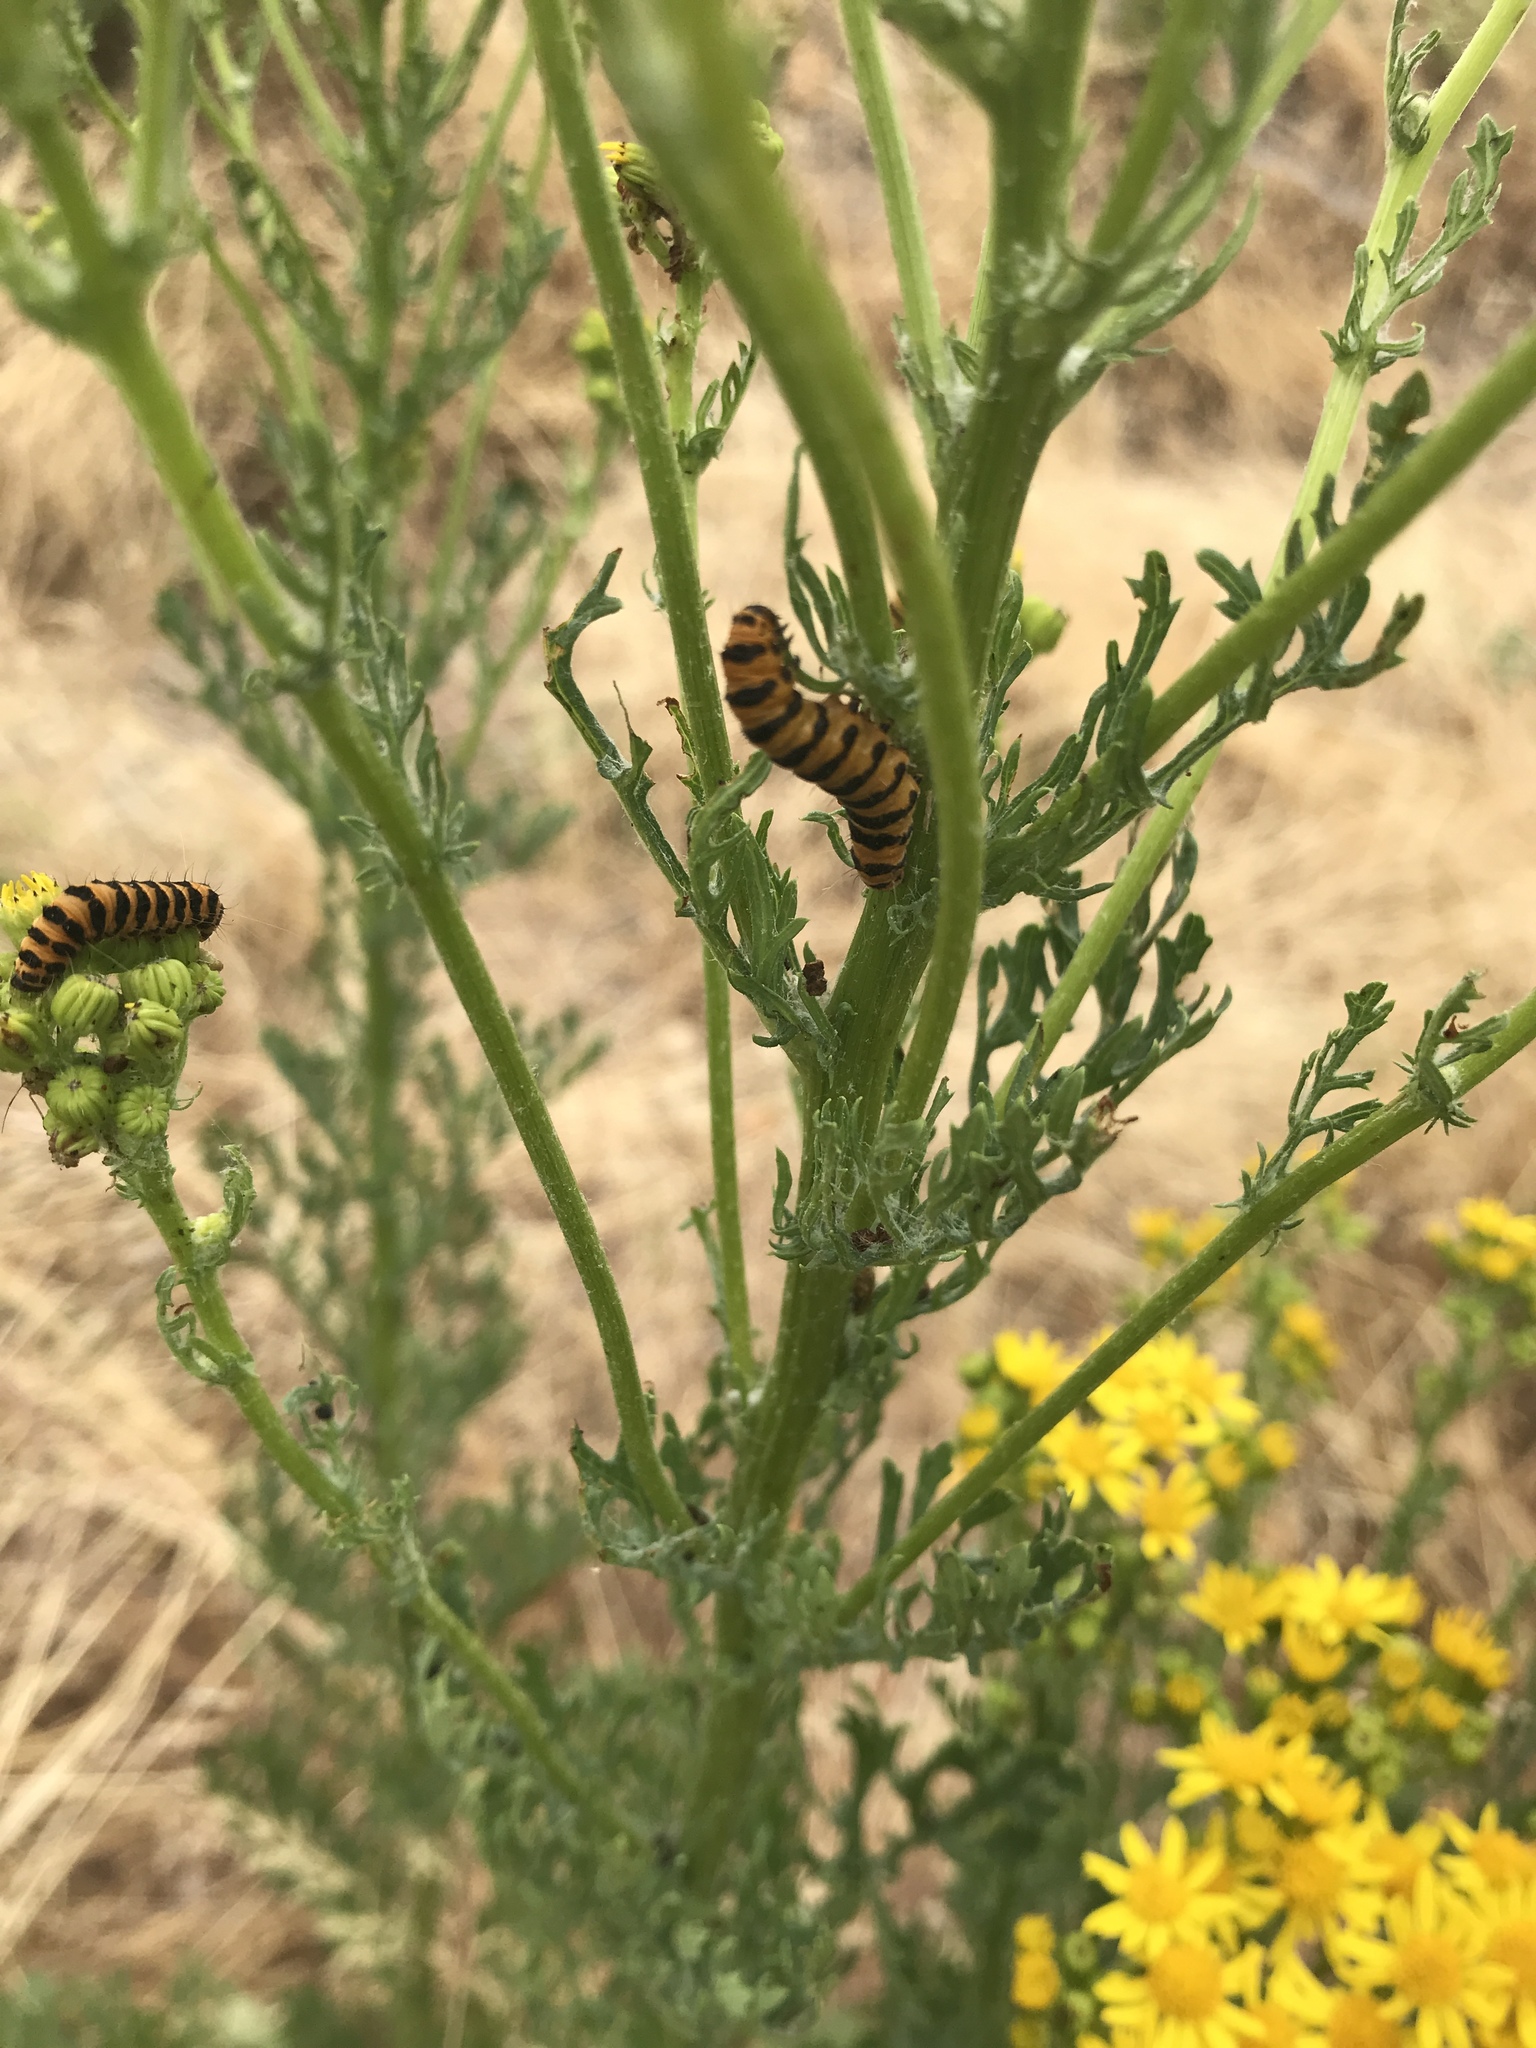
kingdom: Animalia
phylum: Arthropoda
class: Insecta
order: Lepidoptera
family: Erebidae
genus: Tyria
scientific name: Tyria jacobaeae
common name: Cinnabar
